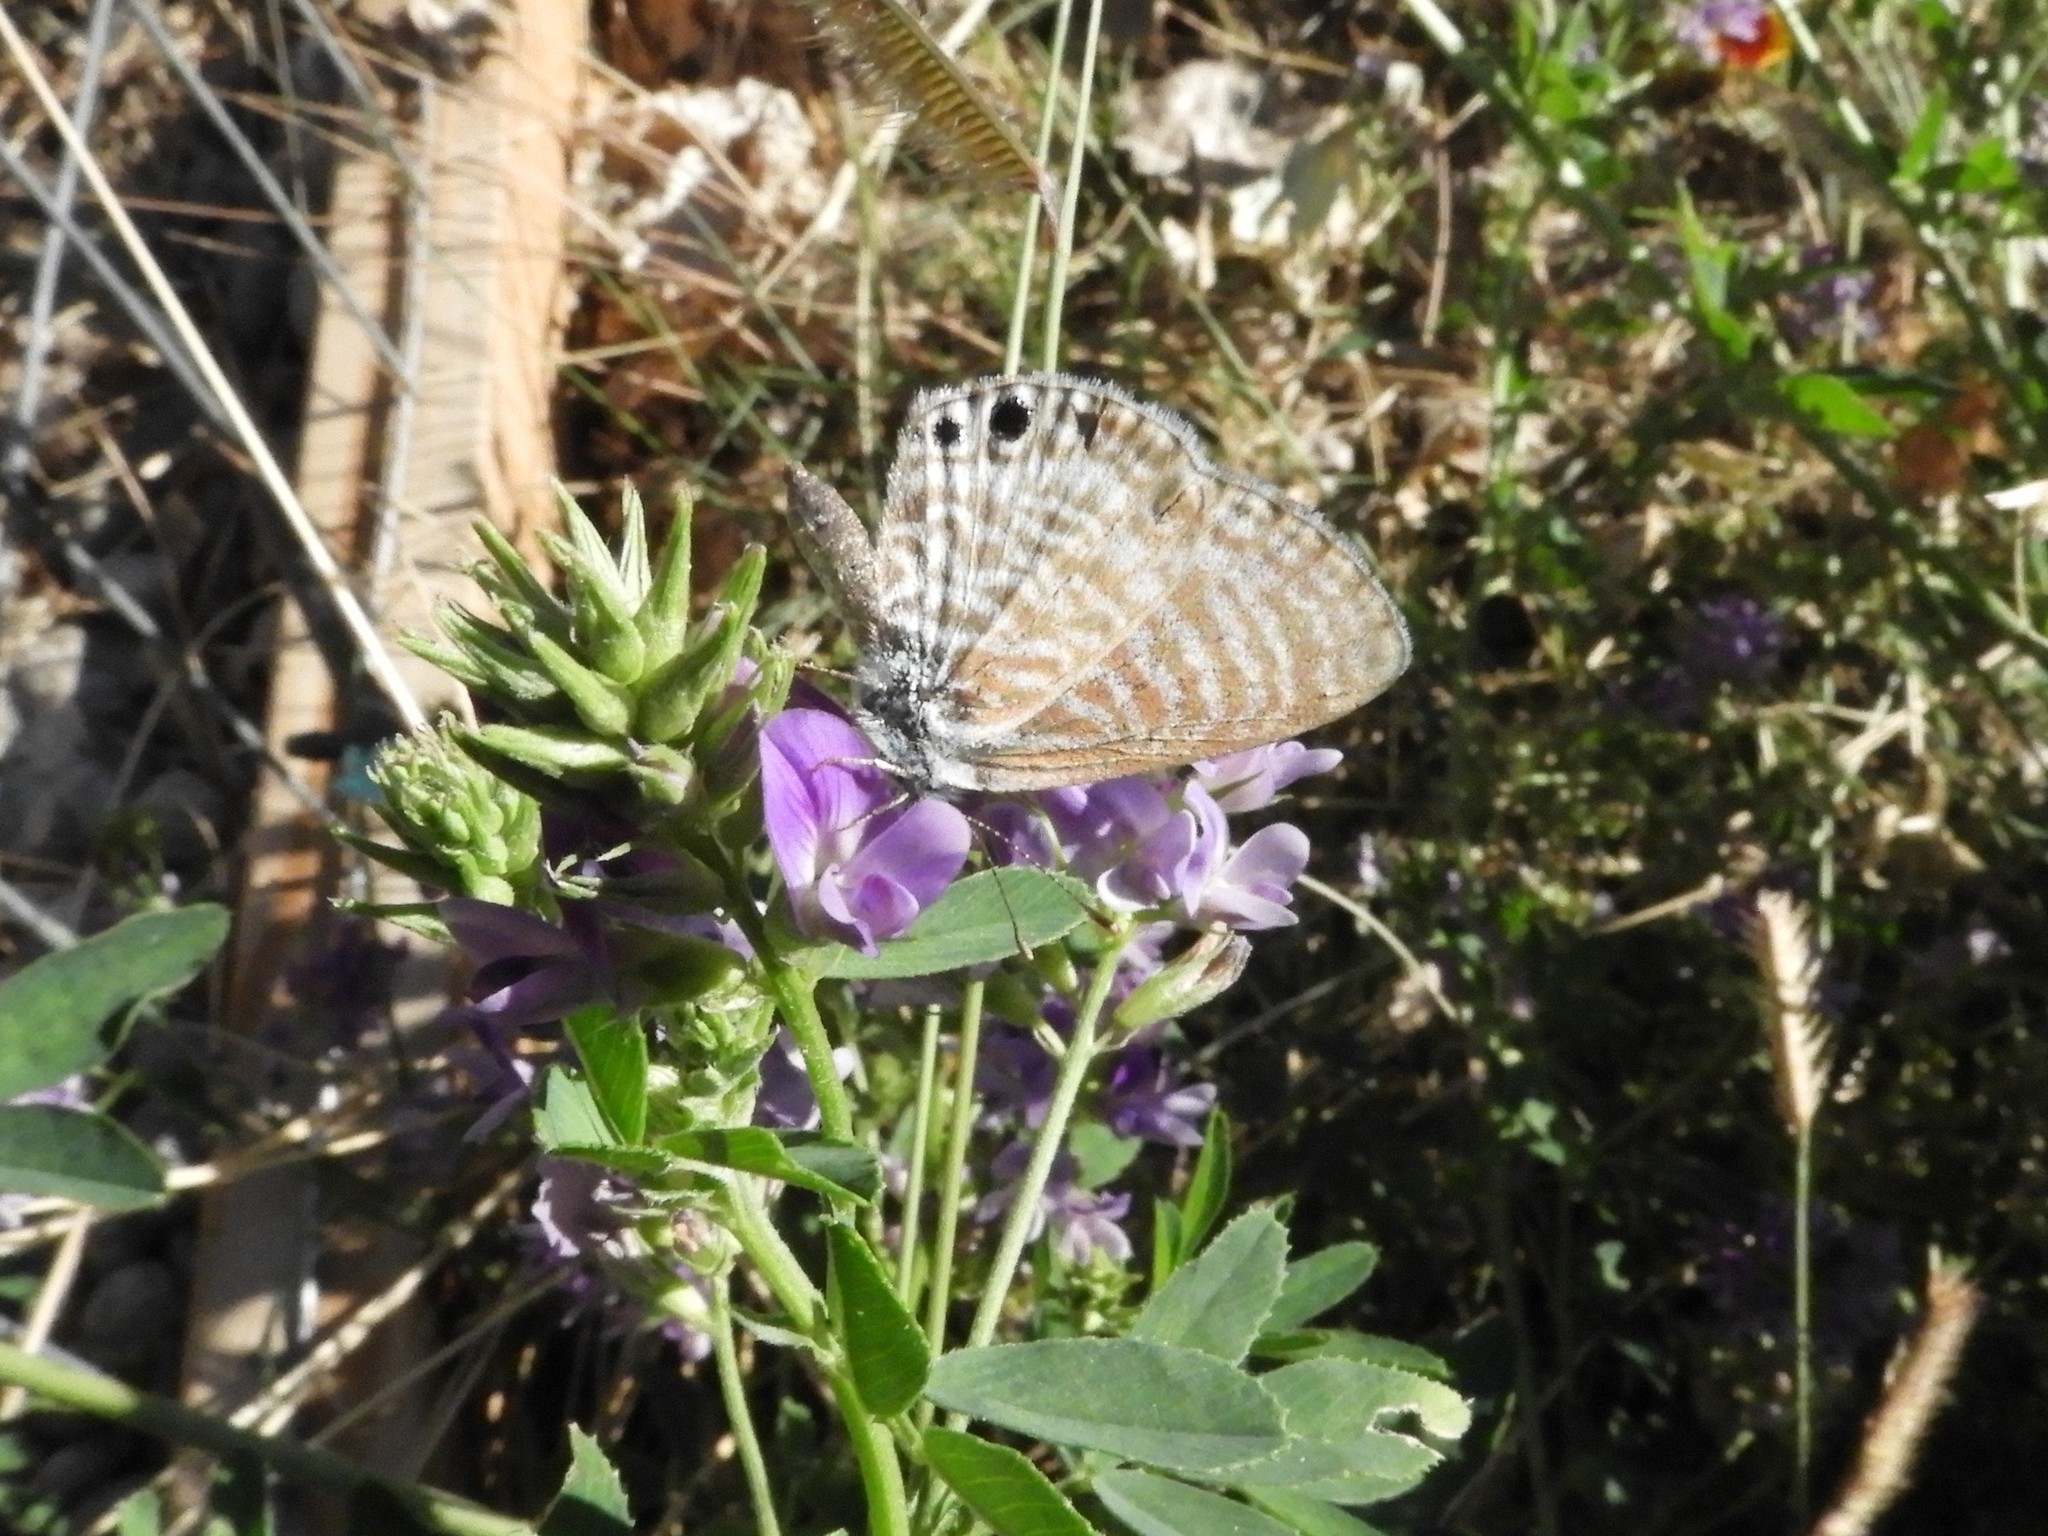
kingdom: Animalia
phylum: Arthropoda
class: Insecta
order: Lepidoptera
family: Lycaenidae
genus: Leptotes
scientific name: Leptotes marina
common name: Marine blue
